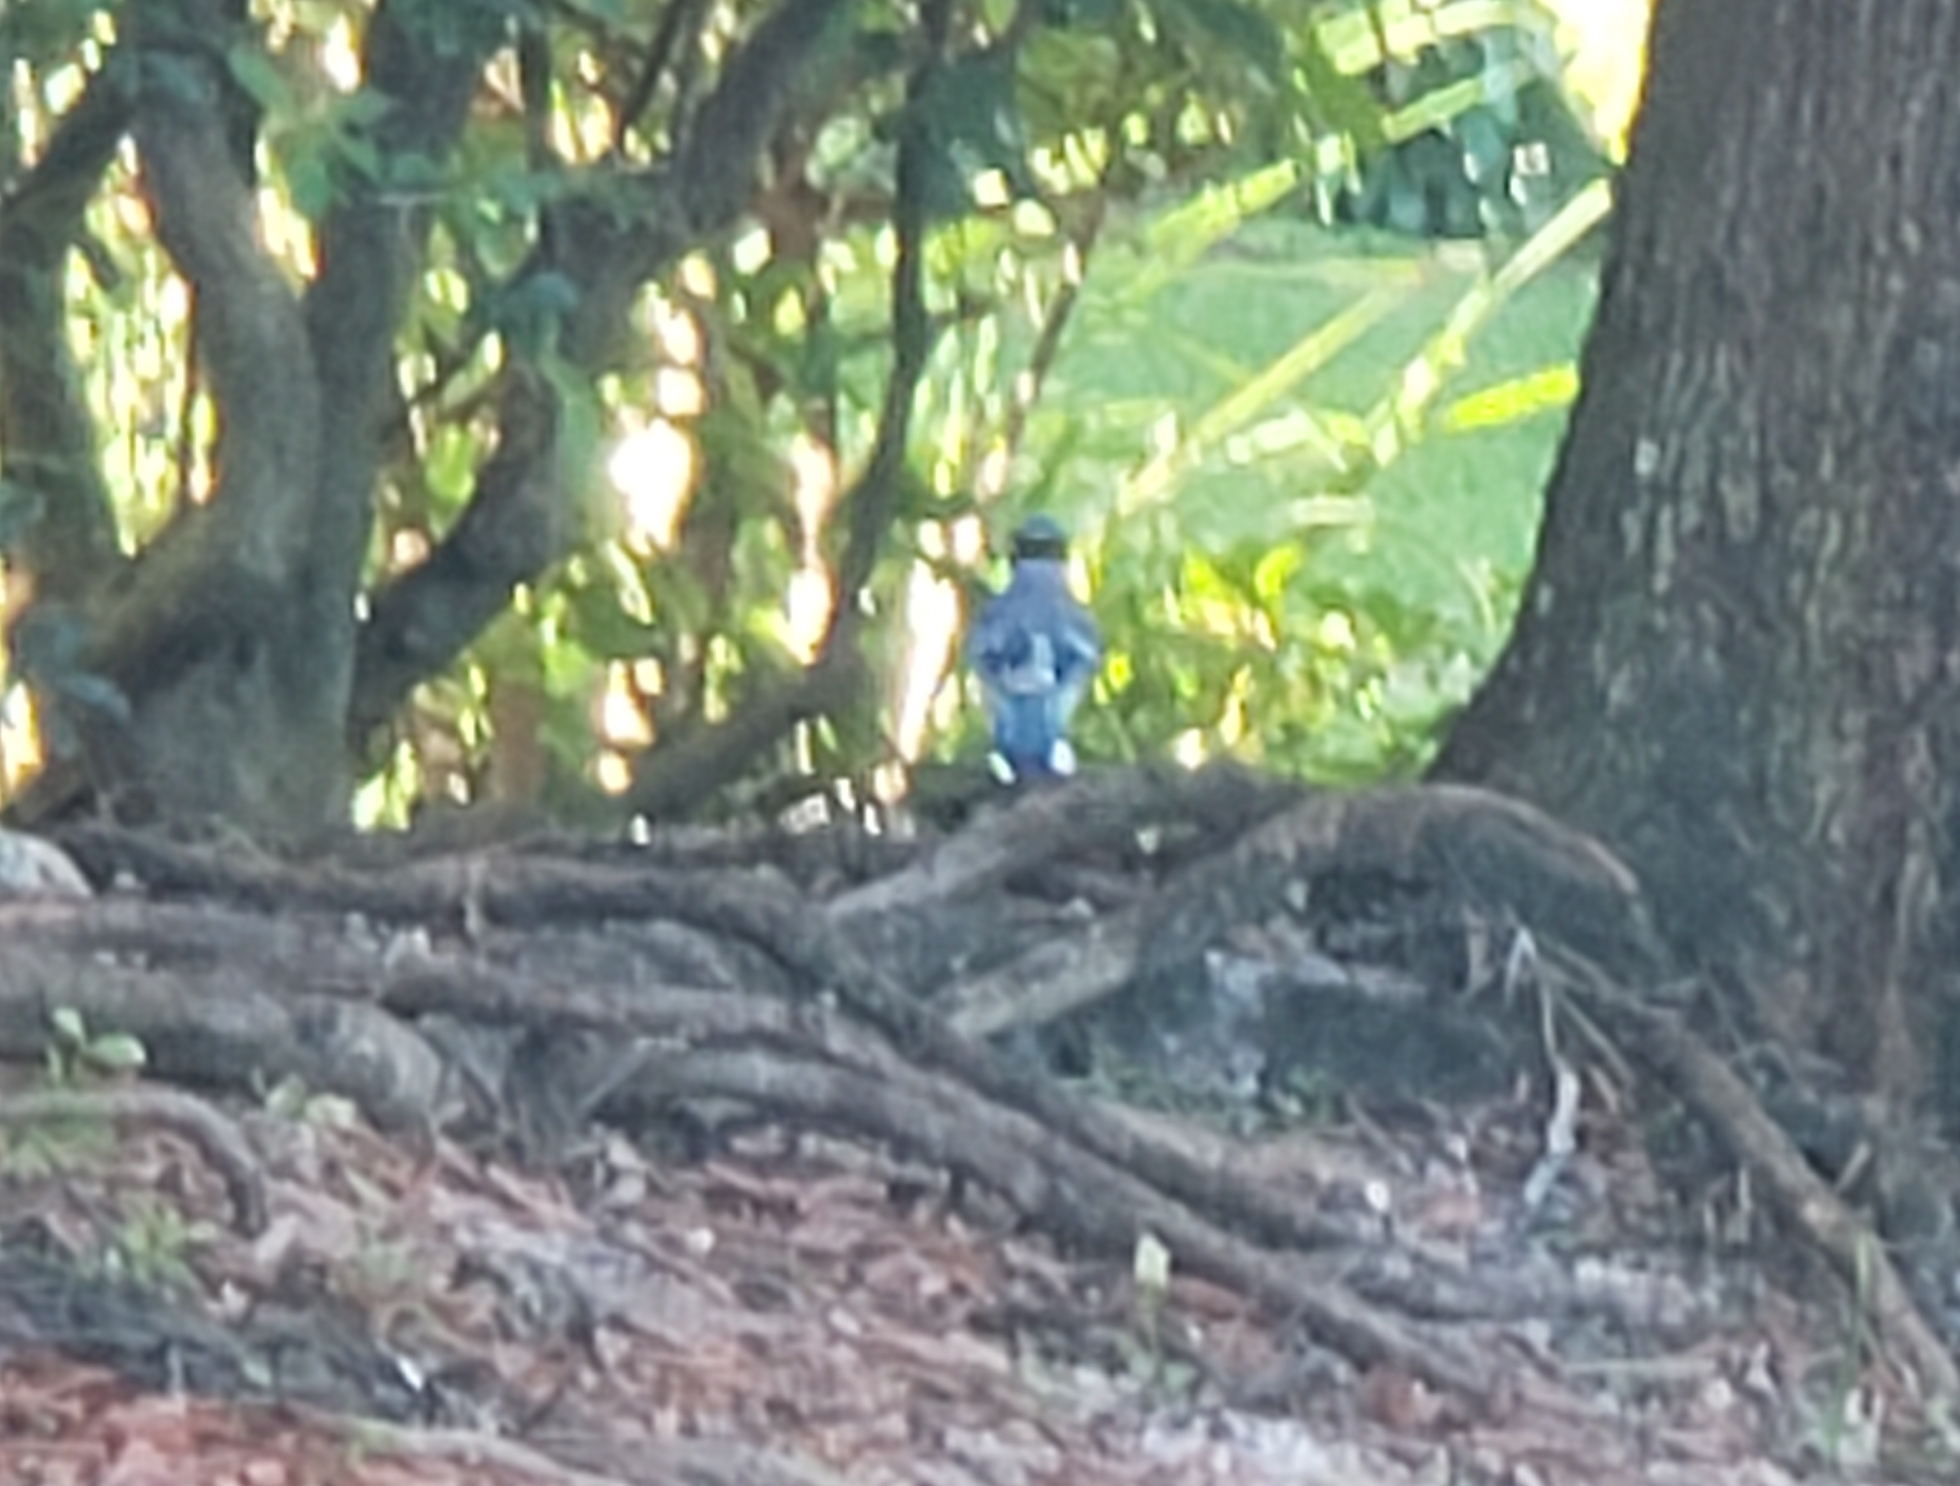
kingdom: Animalia
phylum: Chordata
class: Aves
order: Passeriformes
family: Corvidae
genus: Cyanocitta
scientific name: Cyanocitta cristata
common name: Blue jay
